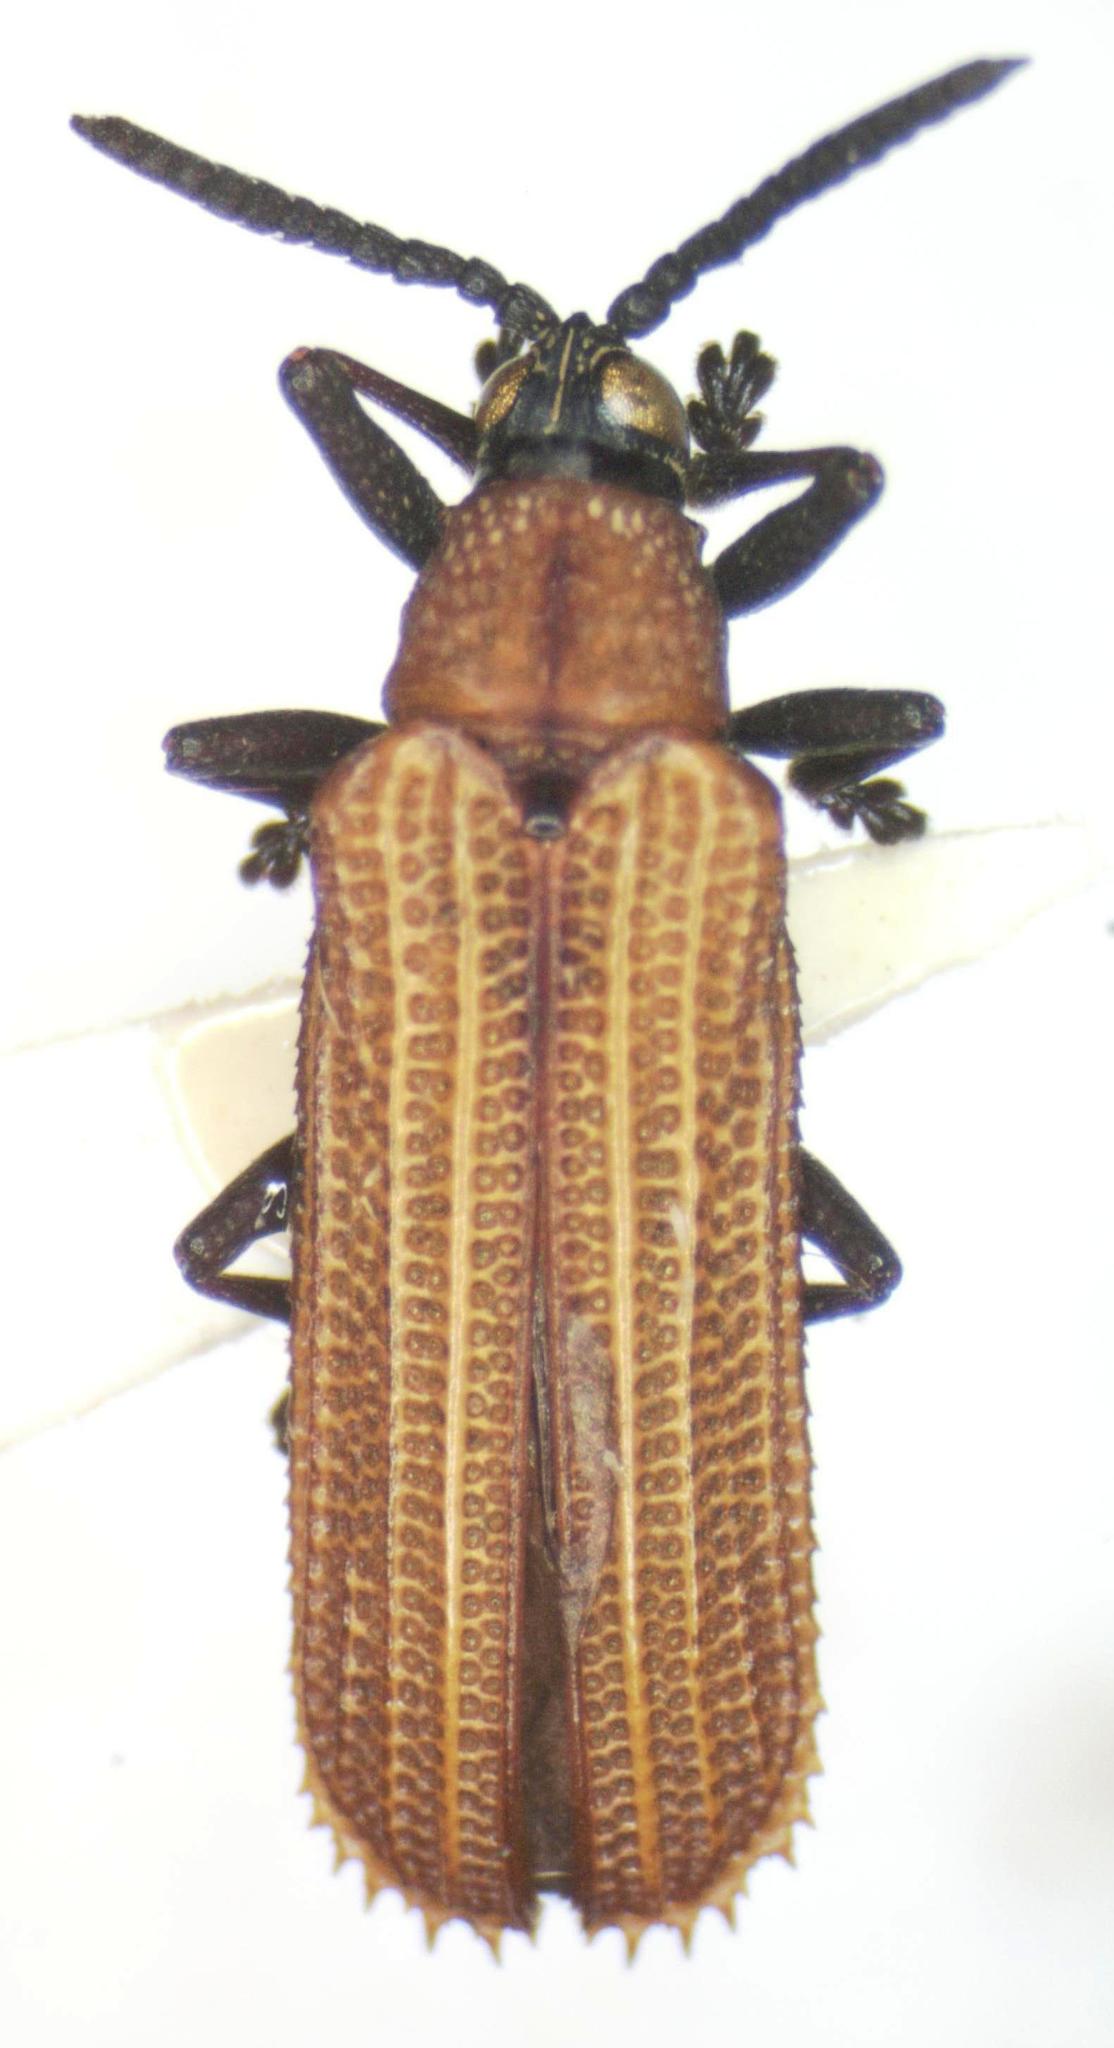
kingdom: Animalia
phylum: Arthropoda
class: Insecta
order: Coleoptera
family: Chrysomelidae
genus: Xenochalepus
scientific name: Xenochalepus chromaticus
